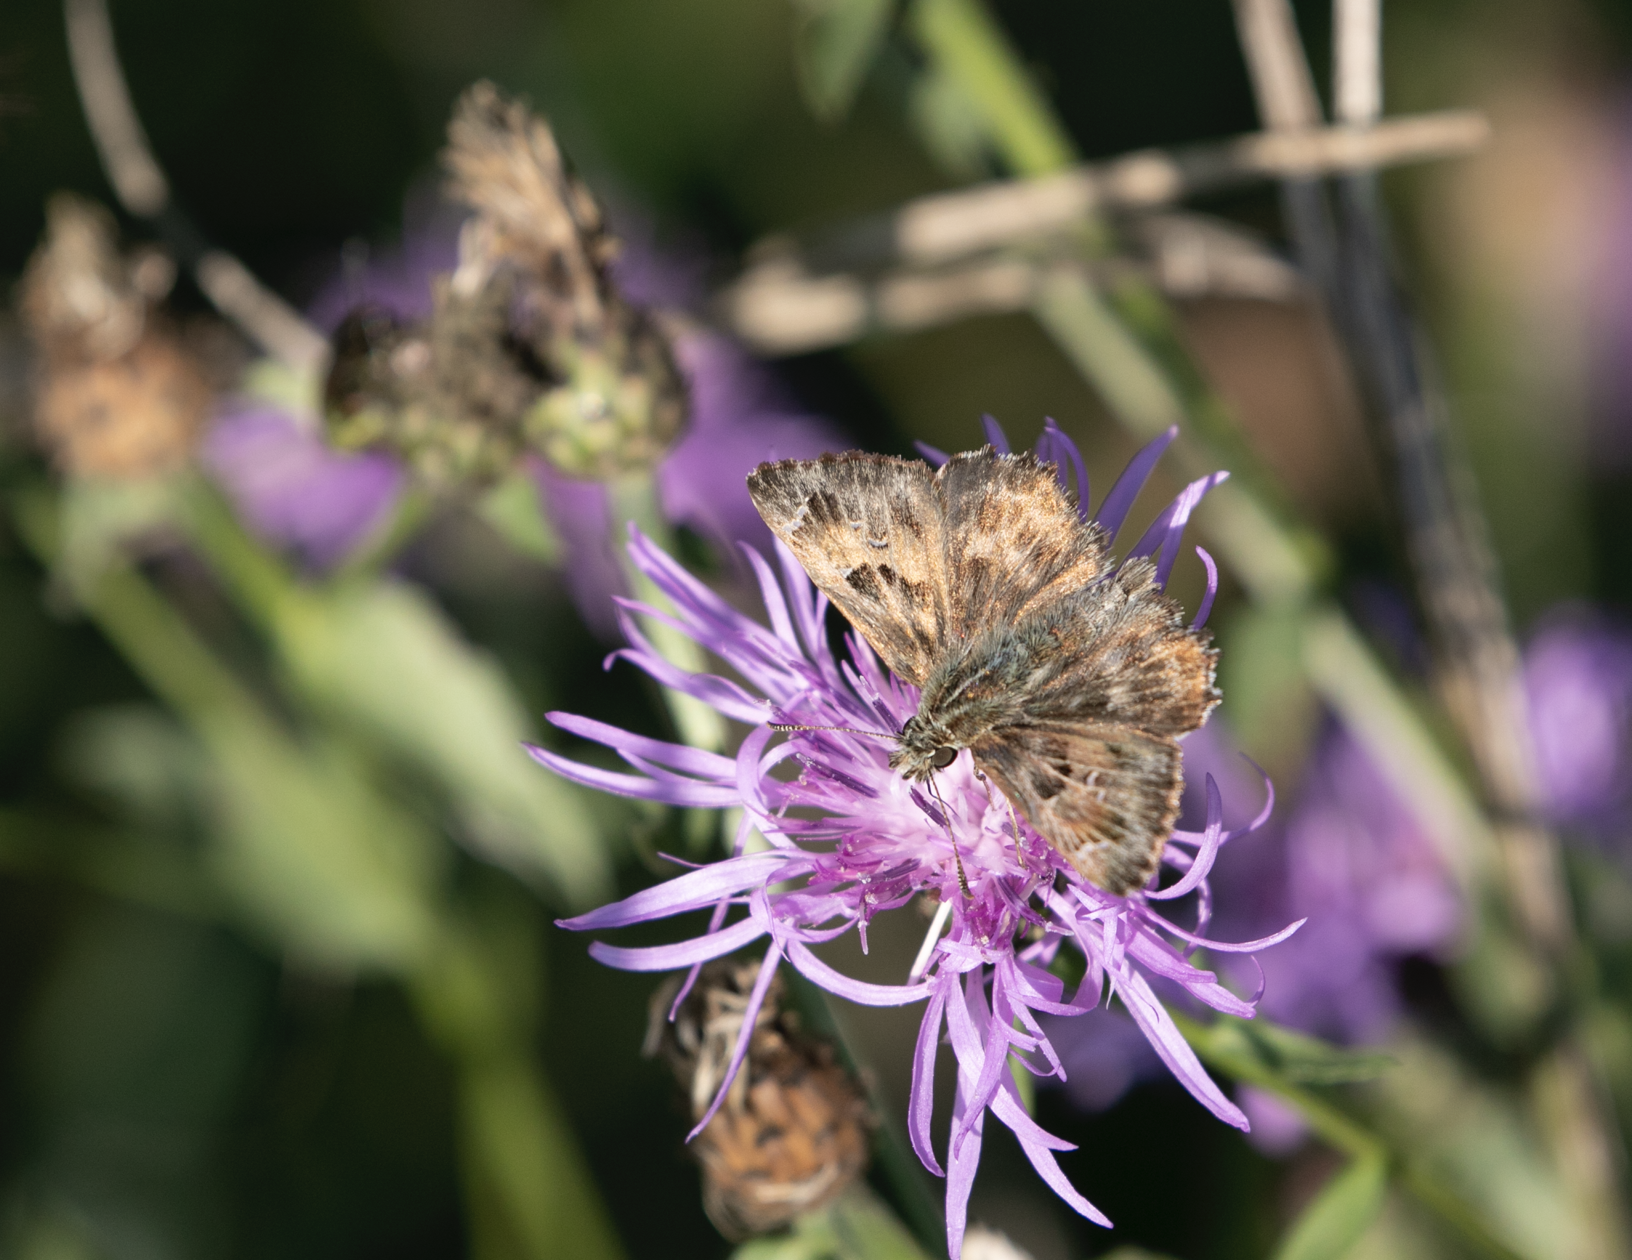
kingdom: Animalia
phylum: Arthropoda
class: Insecta
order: Lepidoptera
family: Hesperiidae
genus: Carcharodus
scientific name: Carcharodus alceae
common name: Mallow skipper
